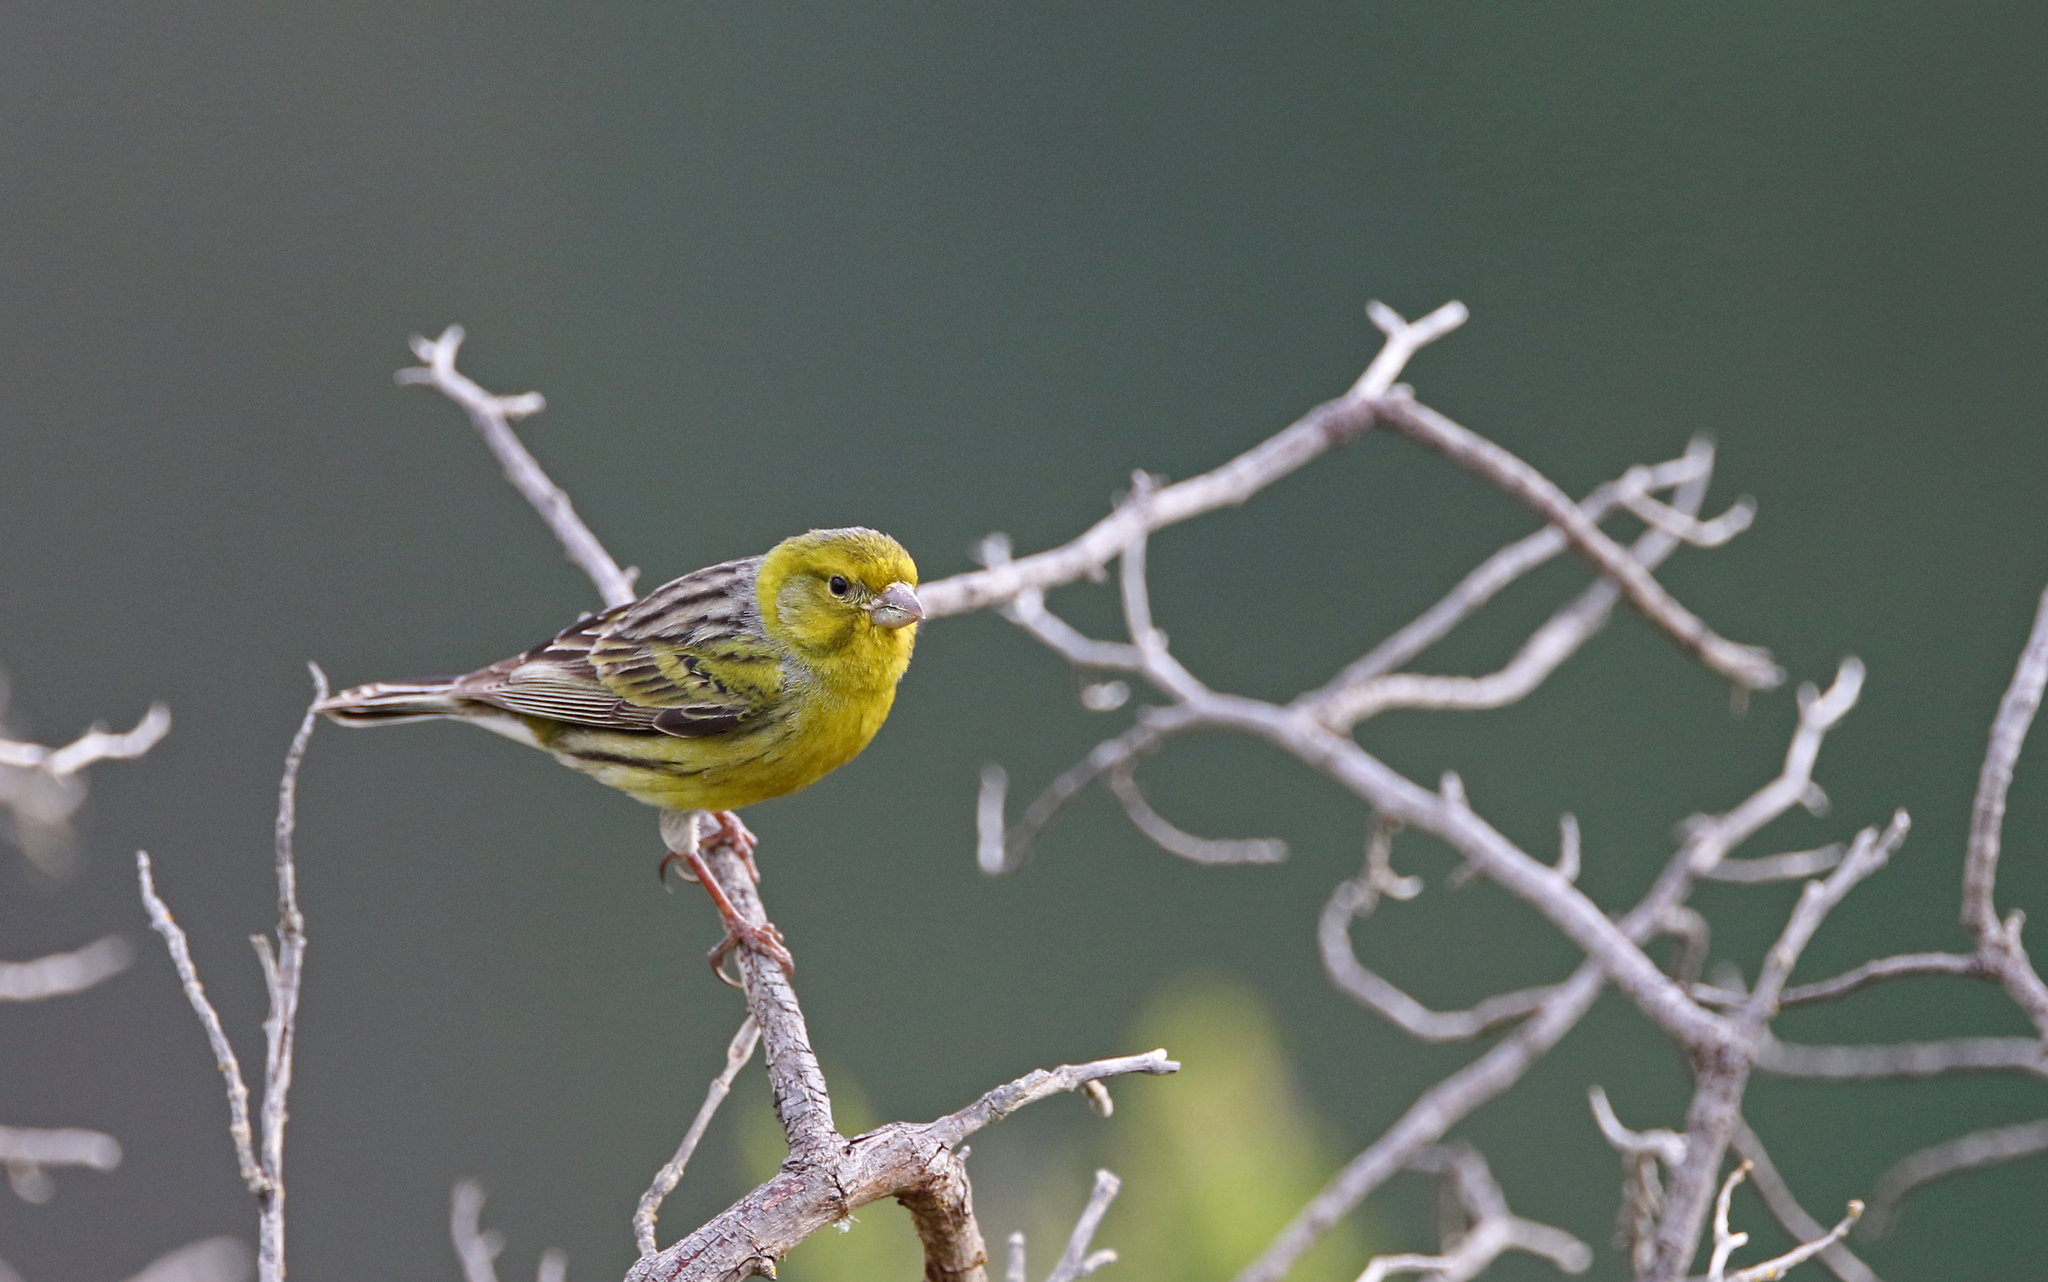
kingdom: Animalia
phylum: Chordata
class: Aves
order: Passeriformes
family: Fringillidae
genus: Serinus
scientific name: Serinus canaria
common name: Atlantic canary
